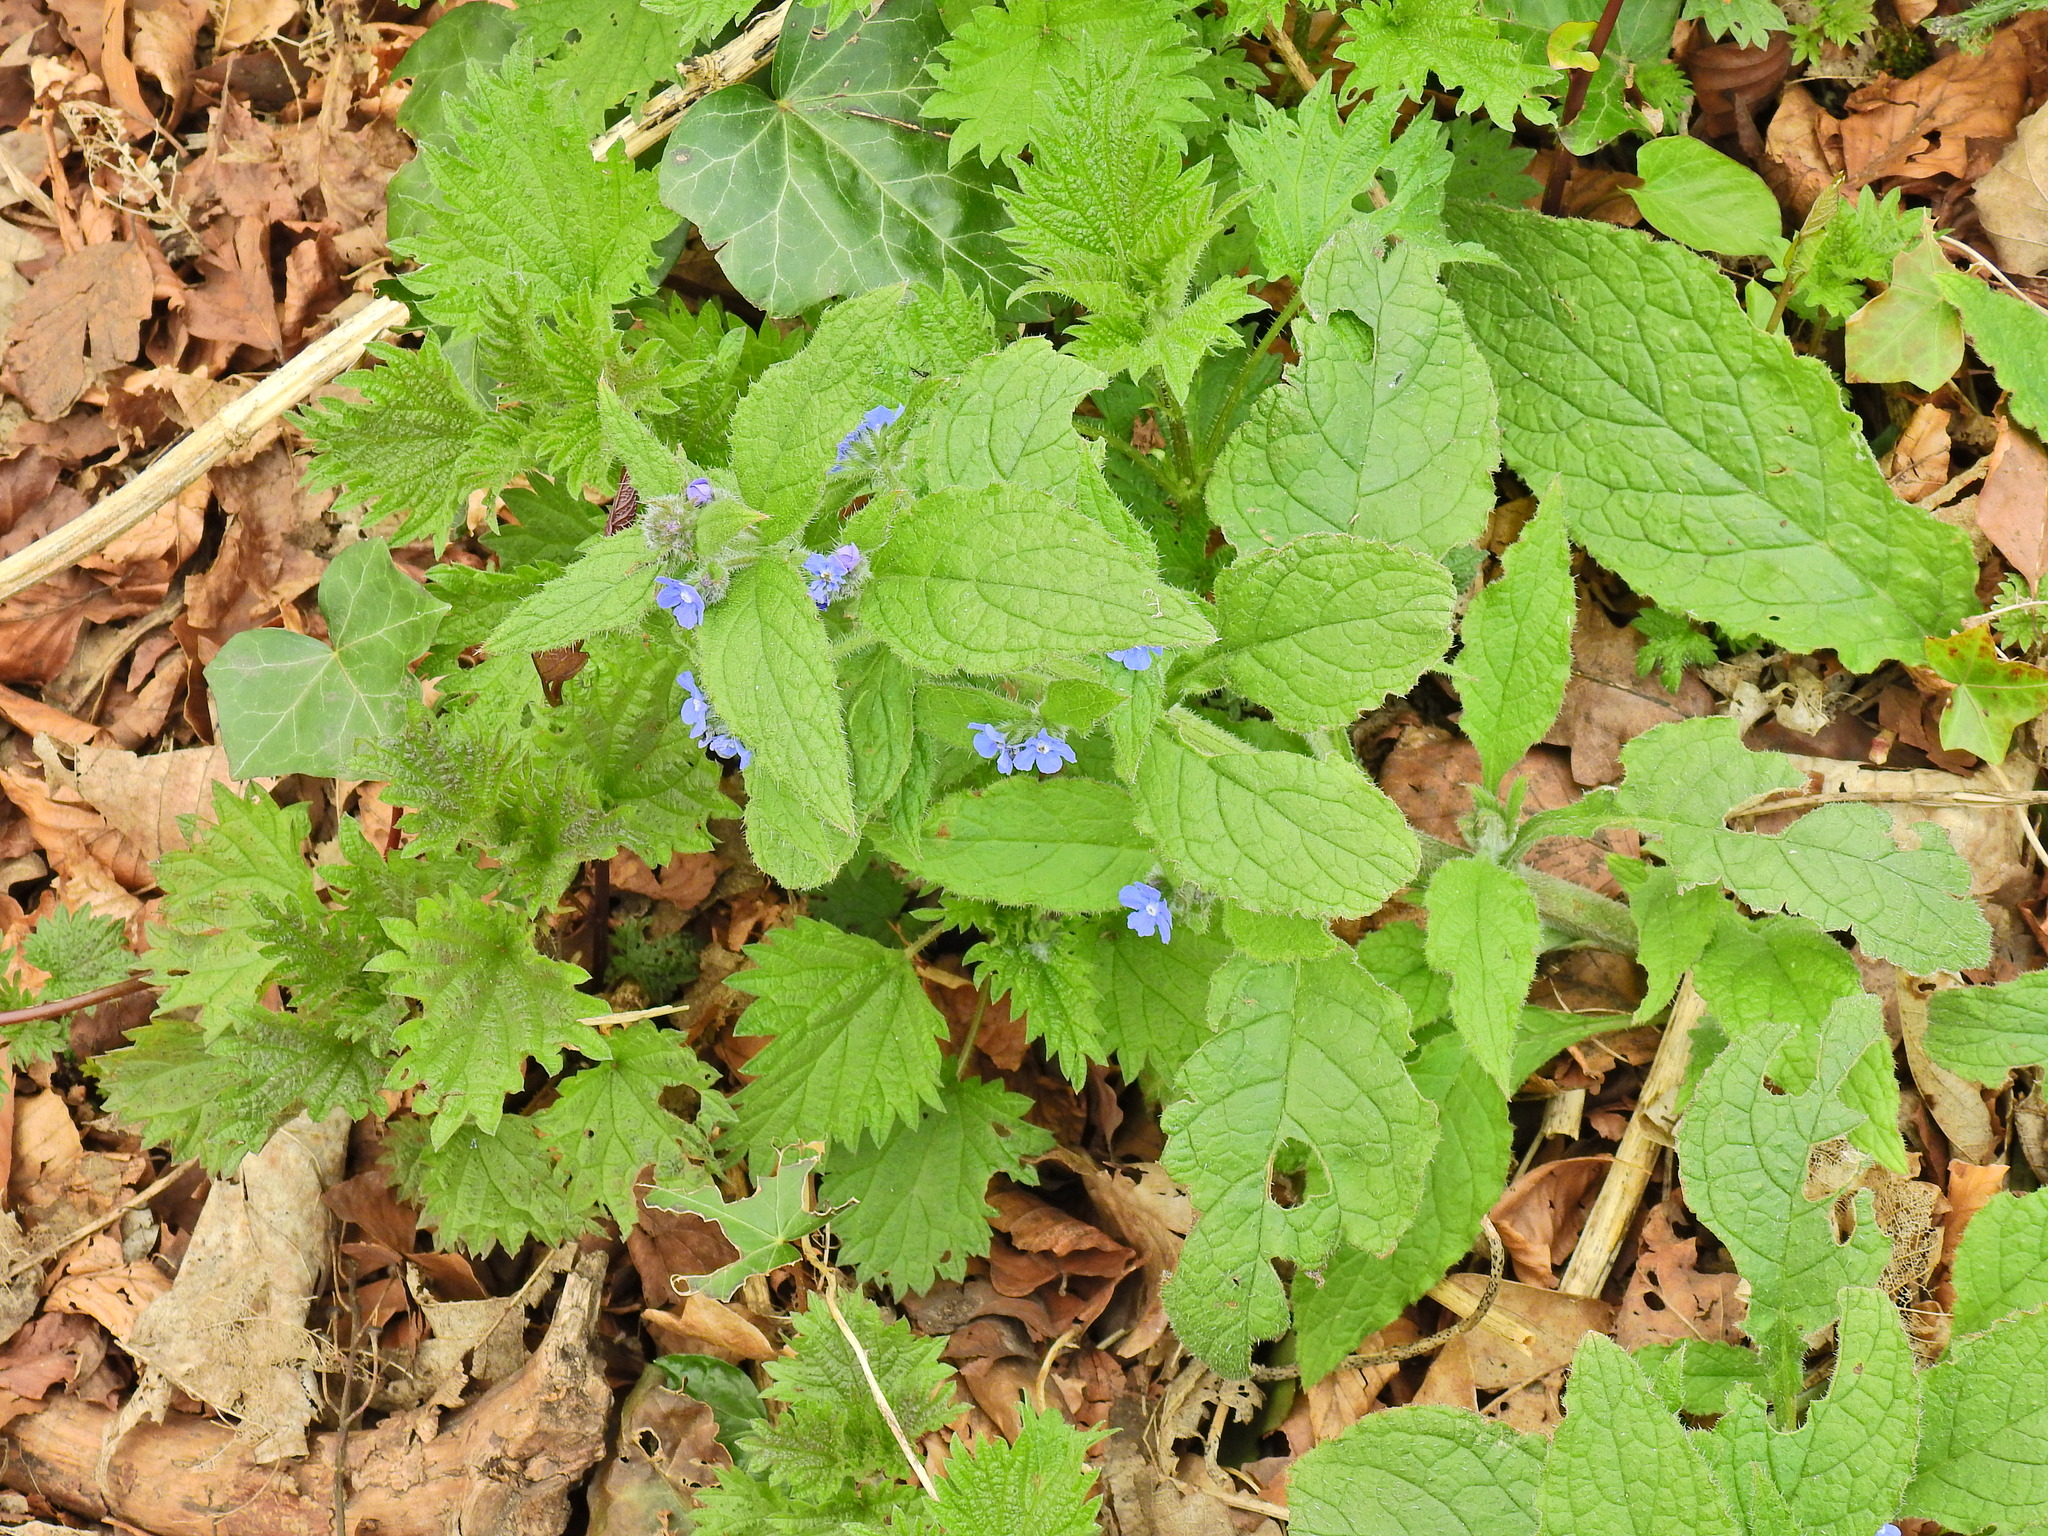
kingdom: Plantae
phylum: Tracheophyta
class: Magnoliopsida
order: Boraginales
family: Boraginaceae
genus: Pentaglottis
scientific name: Pentaglottis sempervirens
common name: Green alkanet
